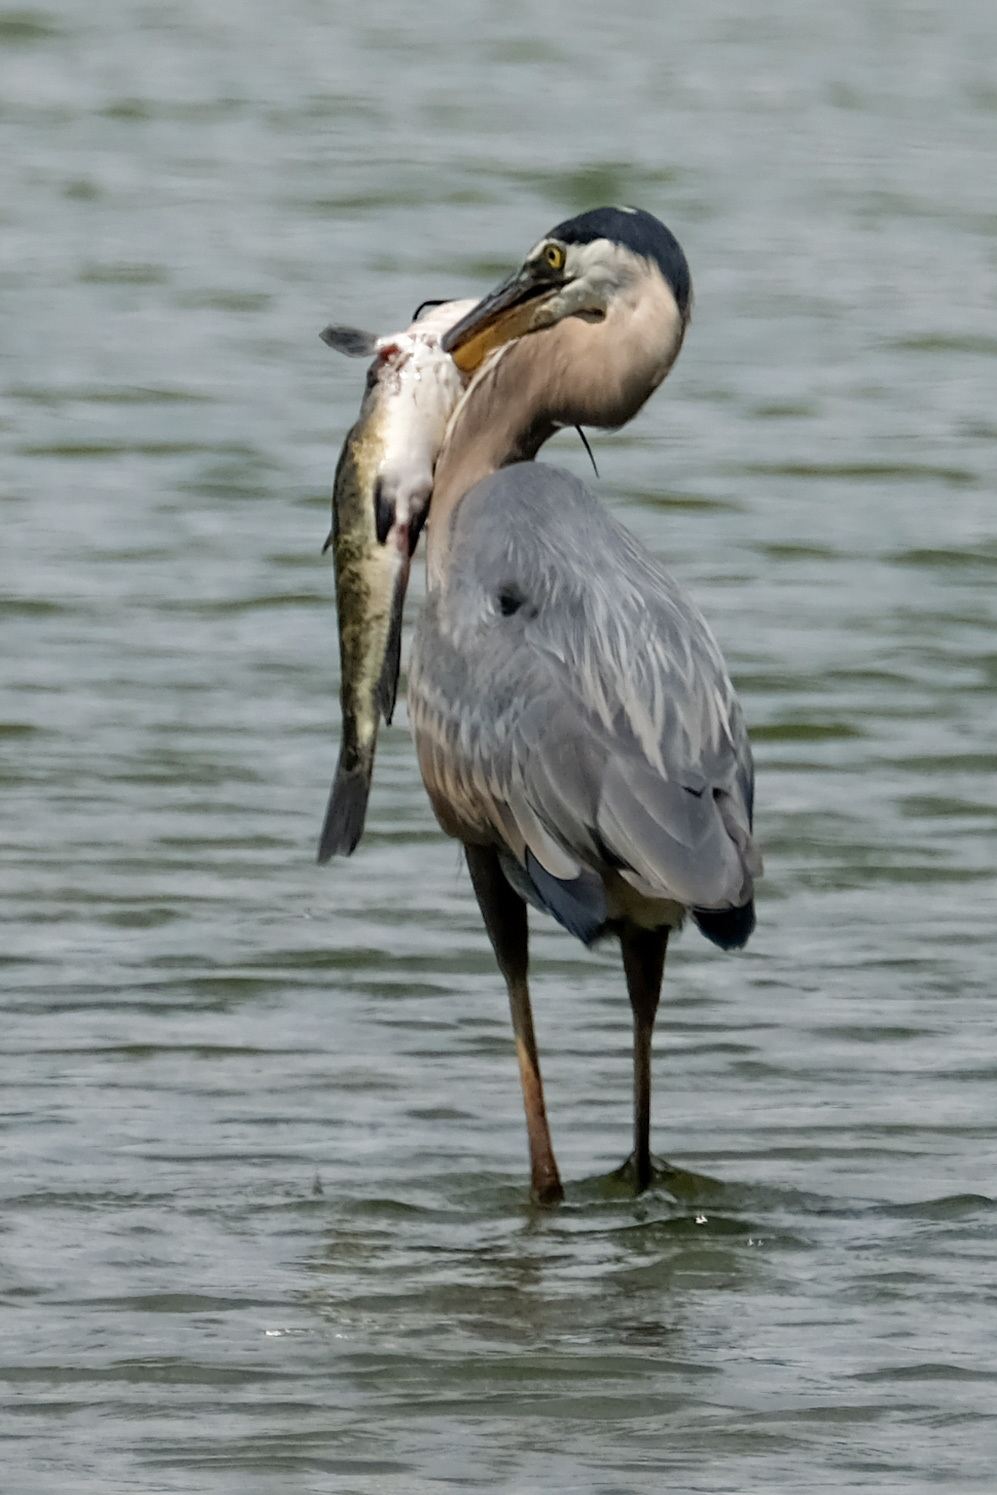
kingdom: Animalia
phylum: Chordata
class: Aves
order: Pelecaniformes
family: Ardeidae
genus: Ardea
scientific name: Ardea herodias
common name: Great blue heron
